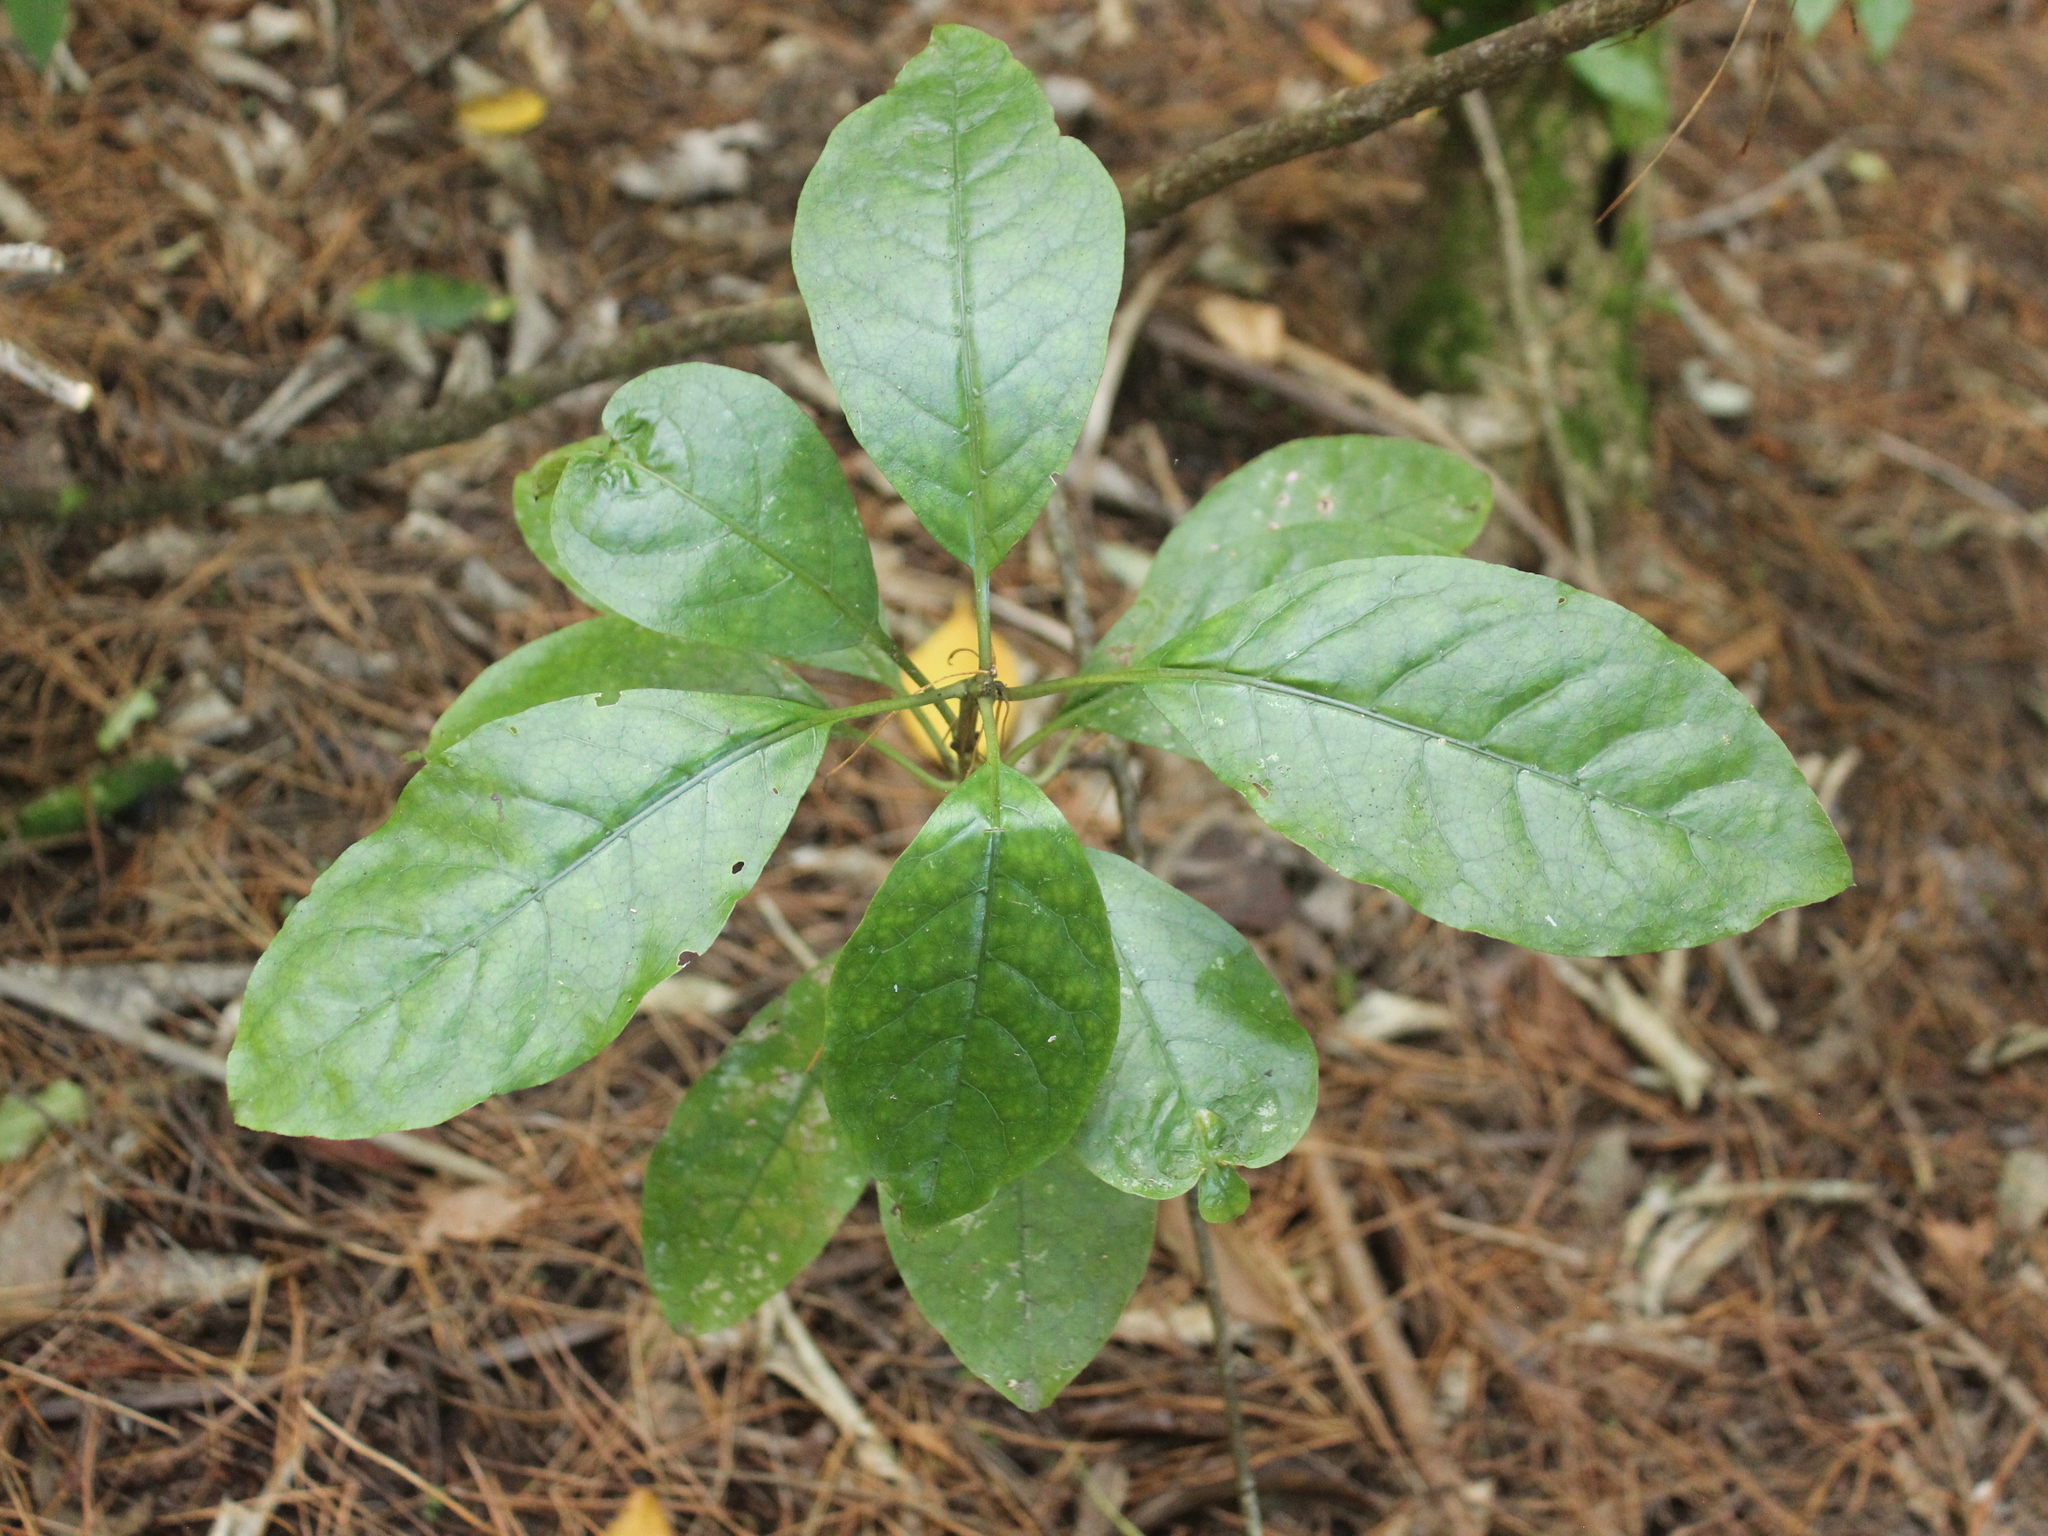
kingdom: Plantae
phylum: Tracheophyta
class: Magnoliopsida
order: Gentianales
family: Rubiaceae
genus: Coprosma
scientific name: Coprosma autumnalis
